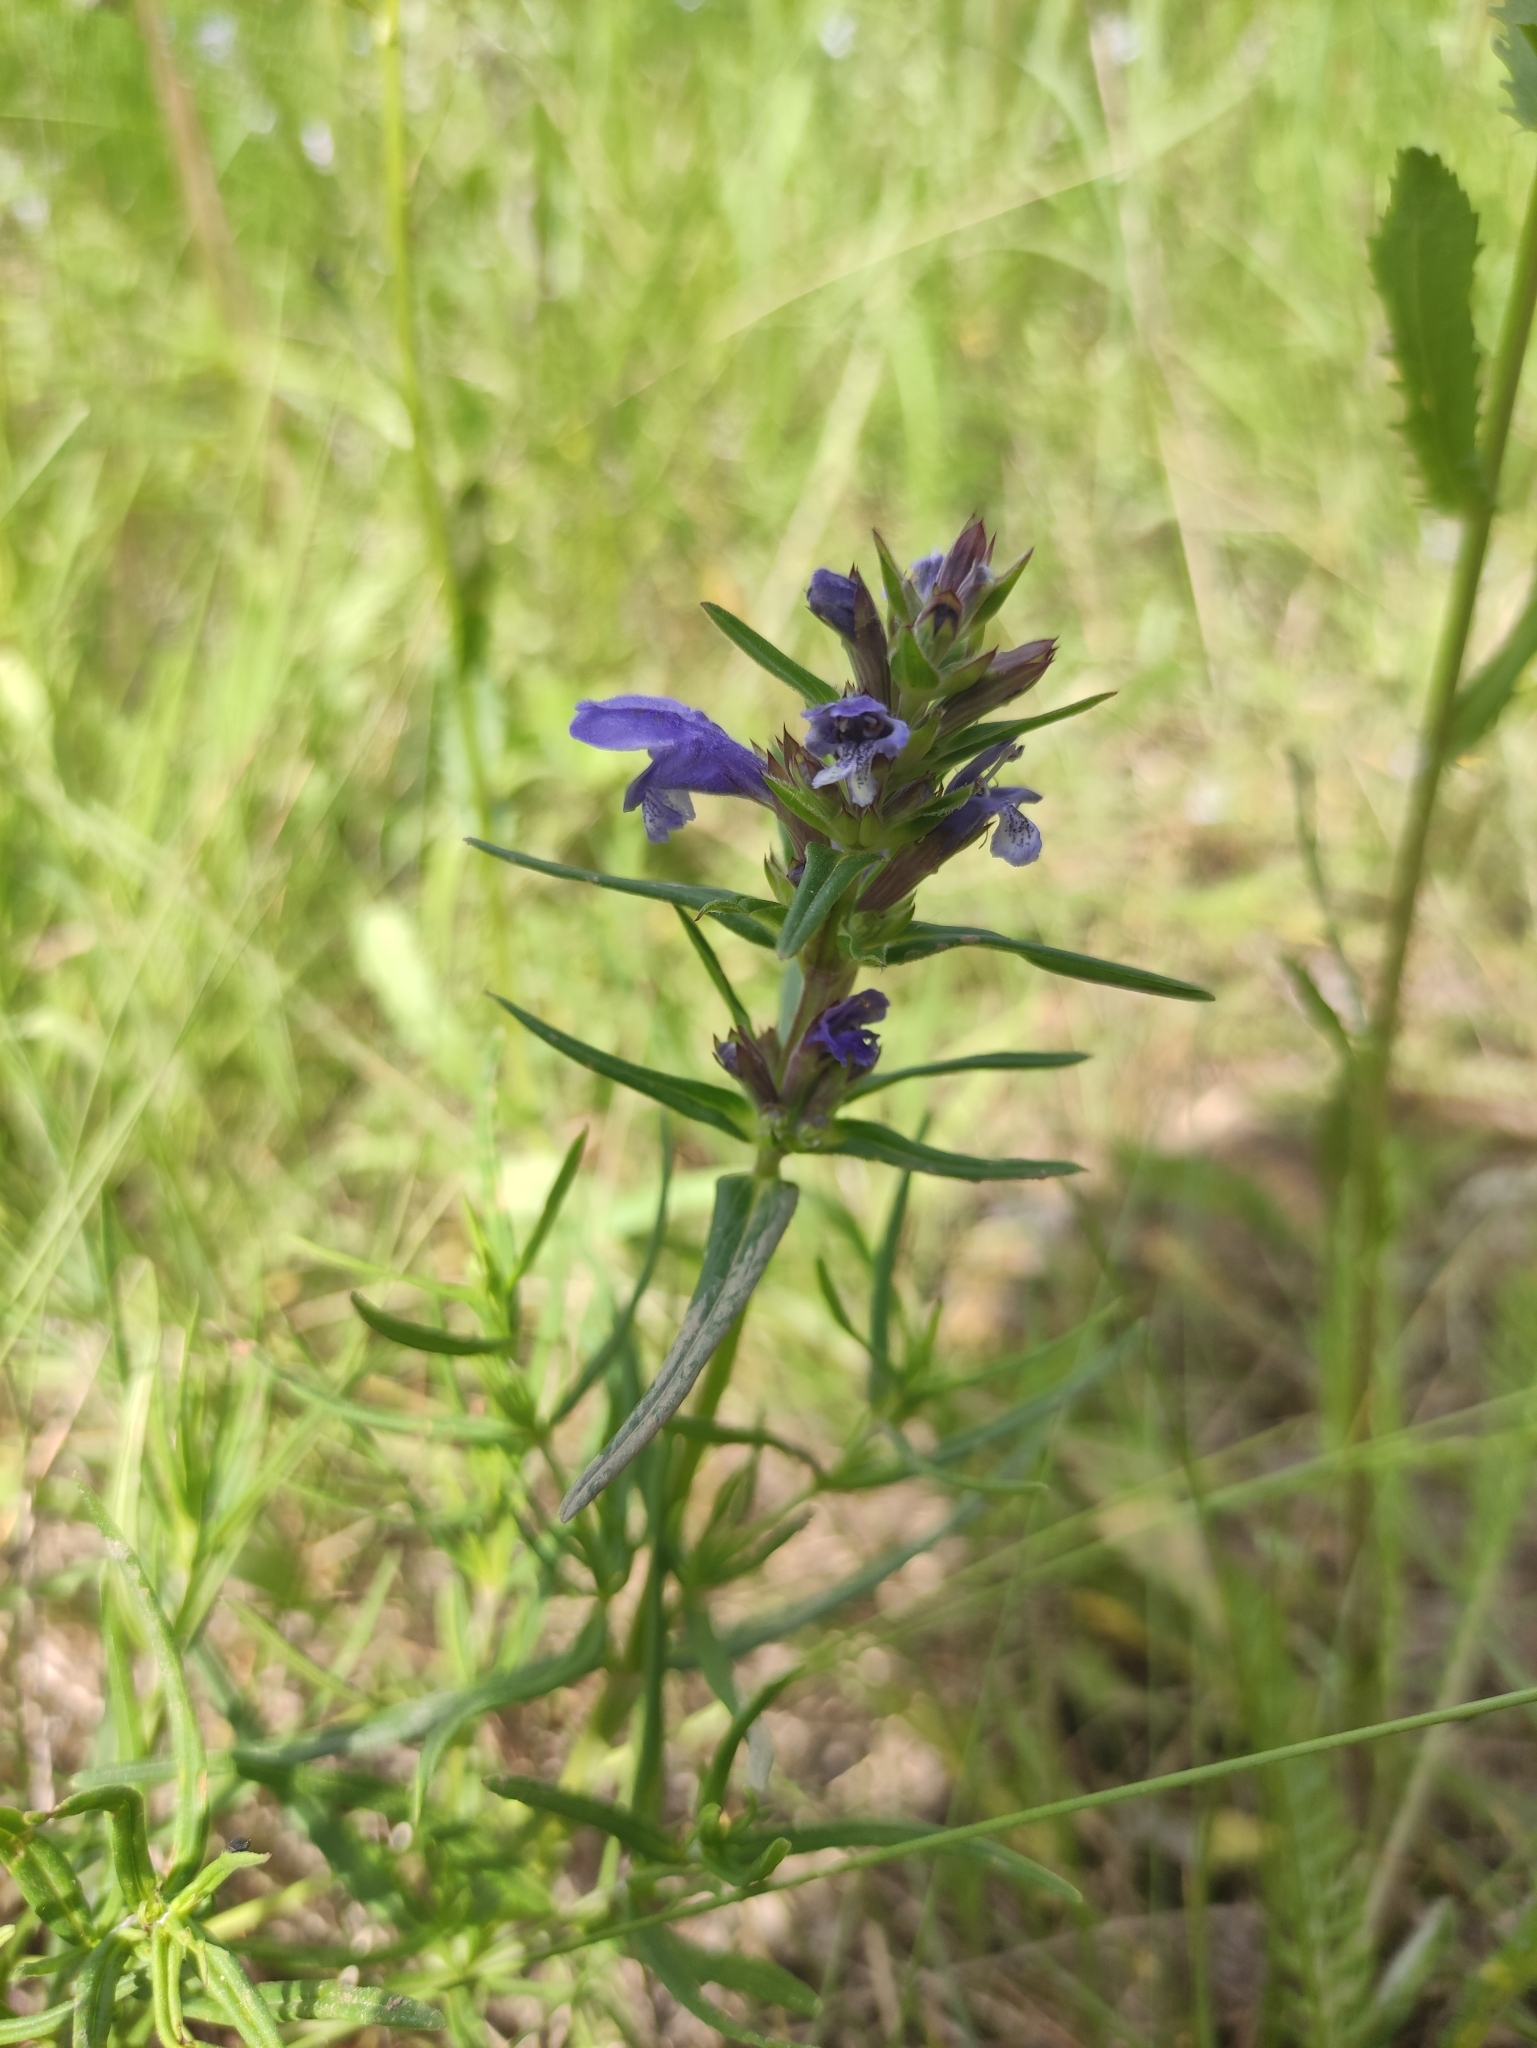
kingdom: Plantae
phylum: Tracheophyta
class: Magnoliopsida
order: Lamiales
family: Lamiaceae
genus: Dracocephalum
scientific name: Dracocephalum ruyschiana
